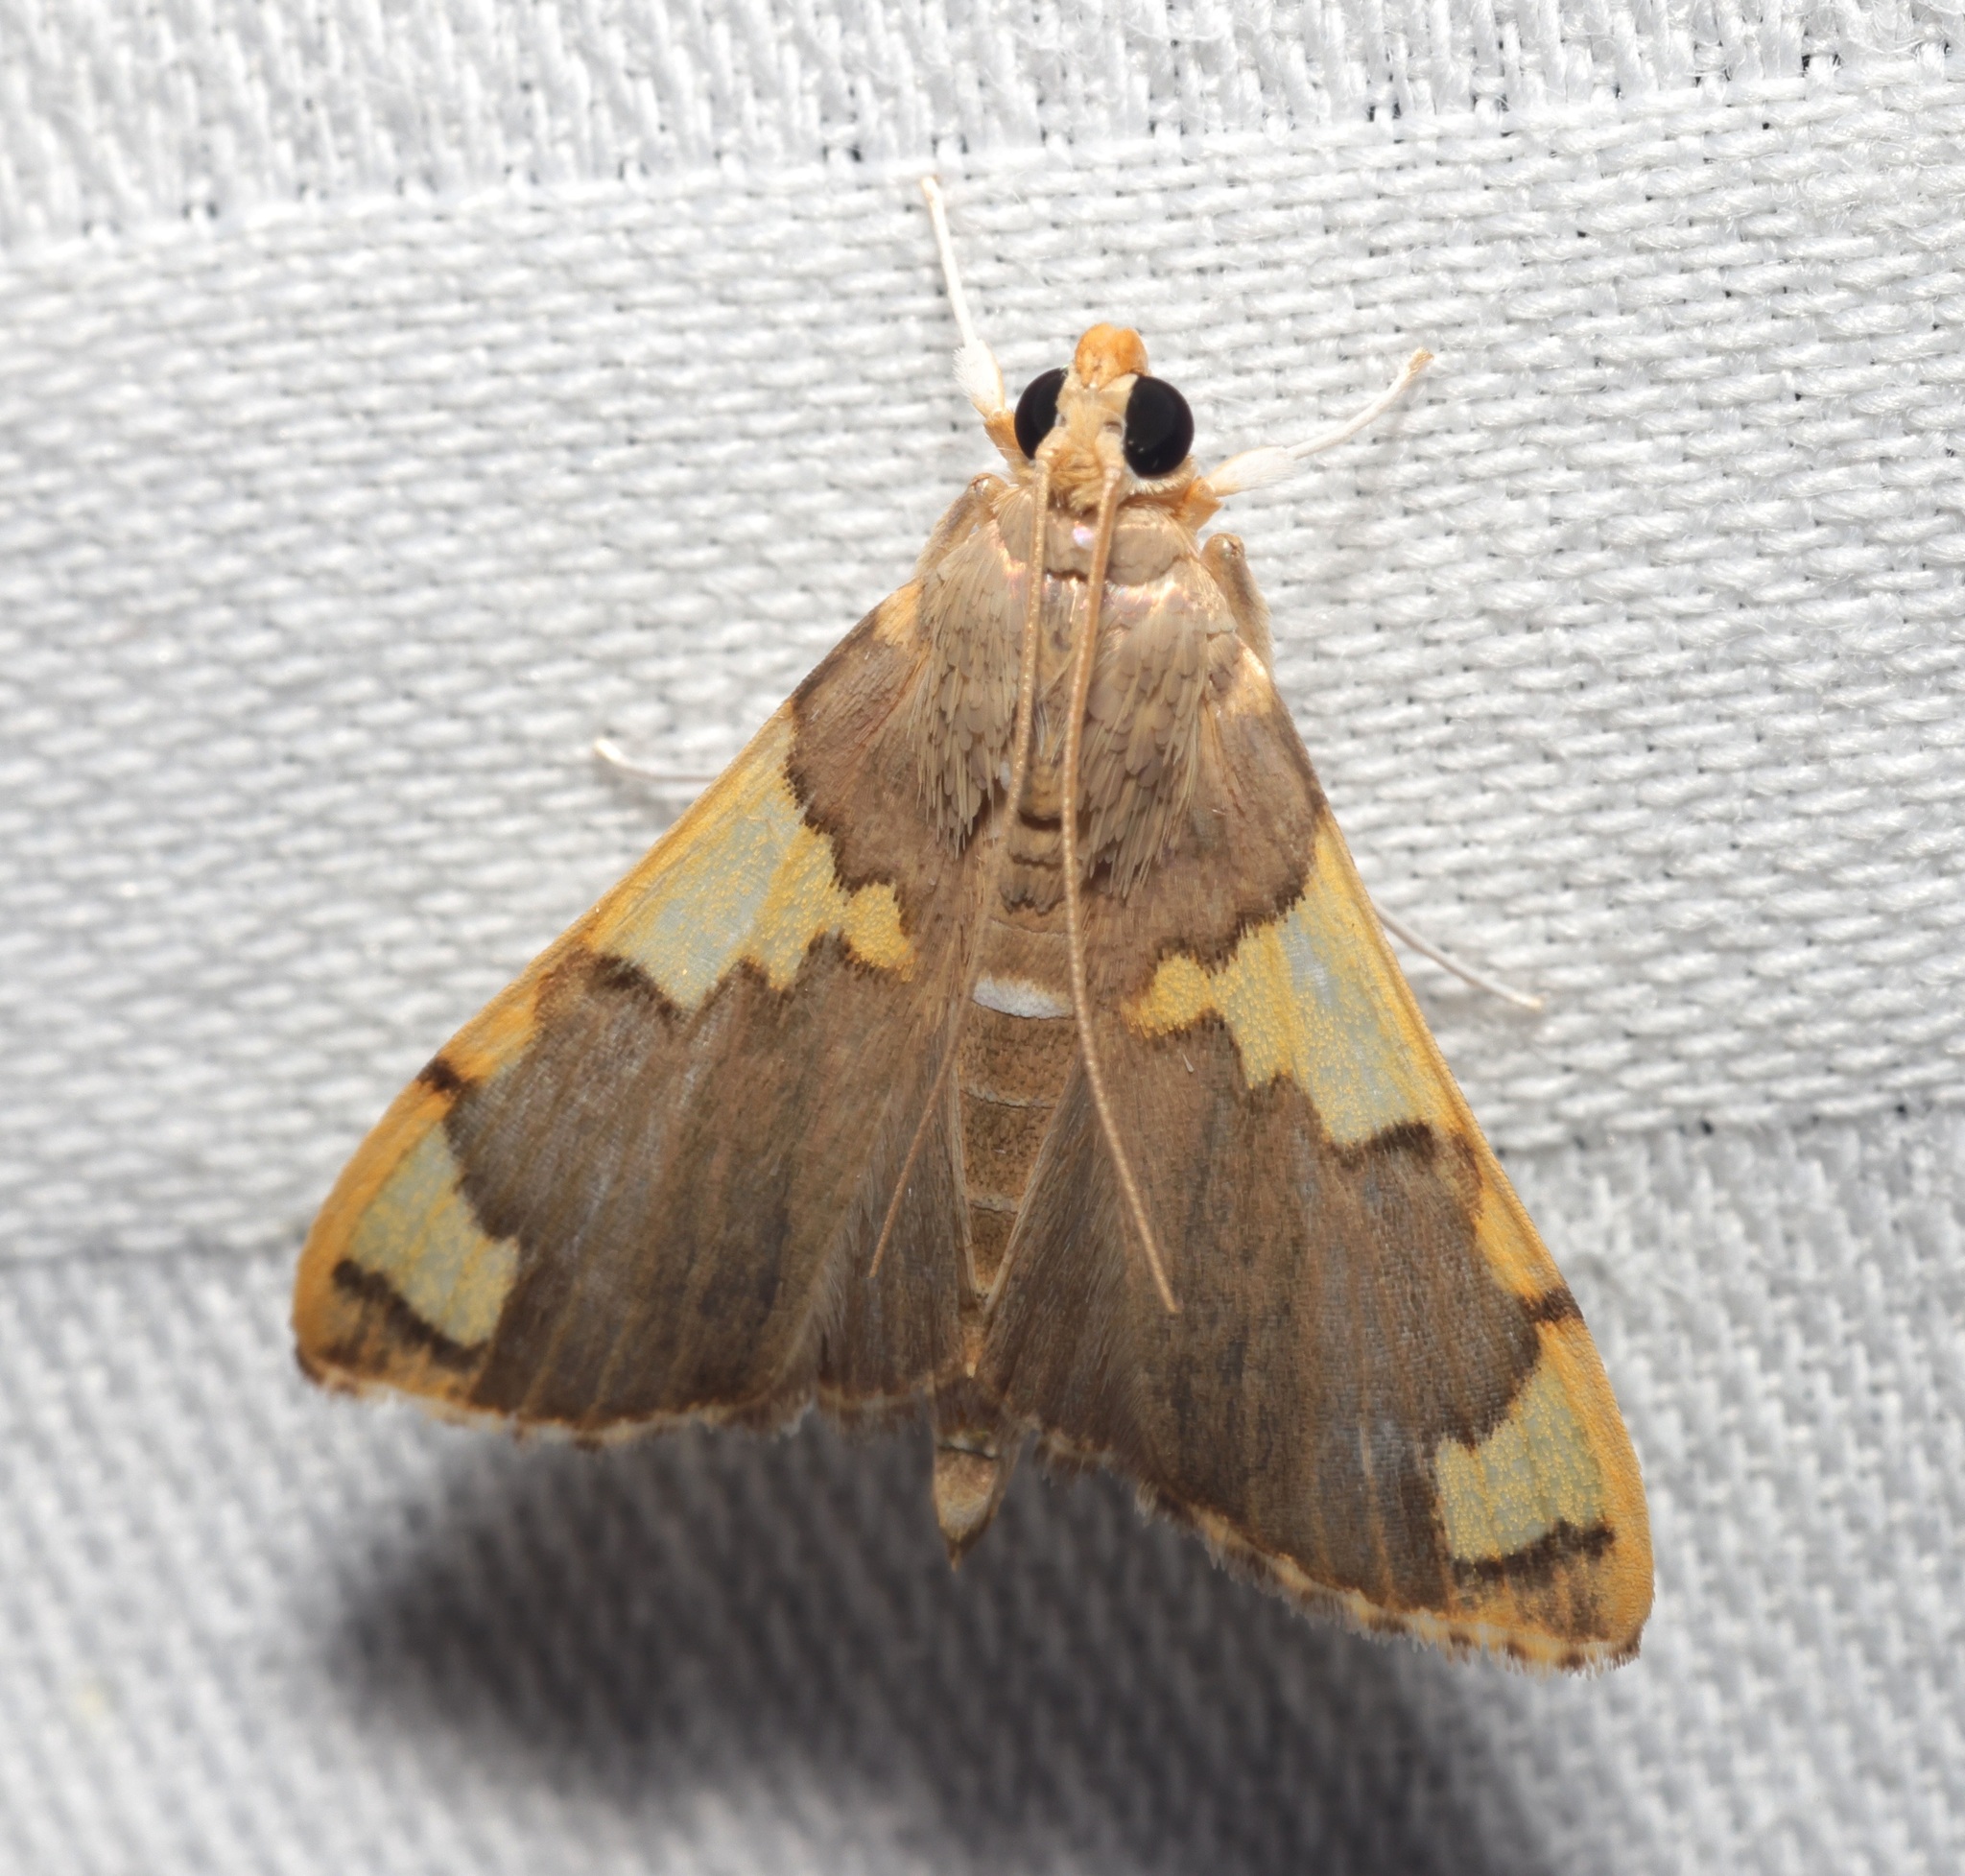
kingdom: Animalia
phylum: Arthropoda
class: Insecta
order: Lepidoptera
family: Crambidae
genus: Rehimena
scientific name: Rehimena phrynealis
